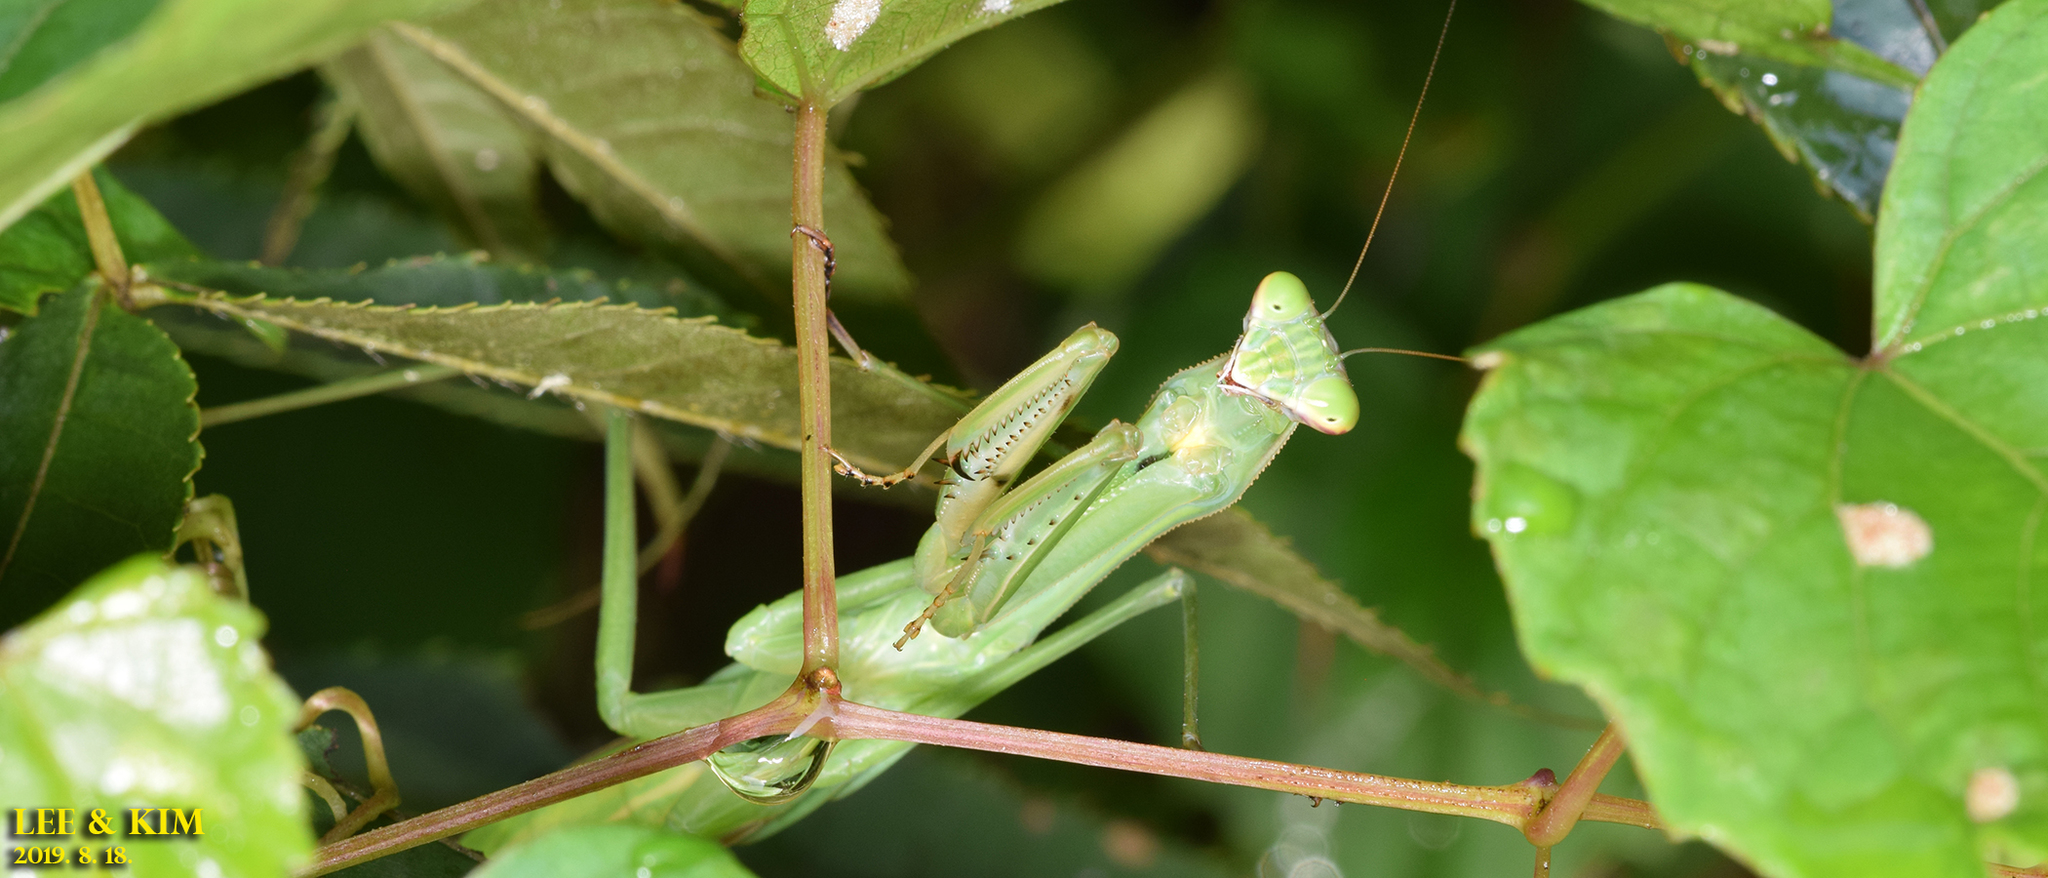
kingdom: Animalia
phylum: Arthropoda
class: Insecta
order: Mantodea
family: Mantidae
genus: Tenodera
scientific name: Tenodera sinensis
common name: Chinese mantis
